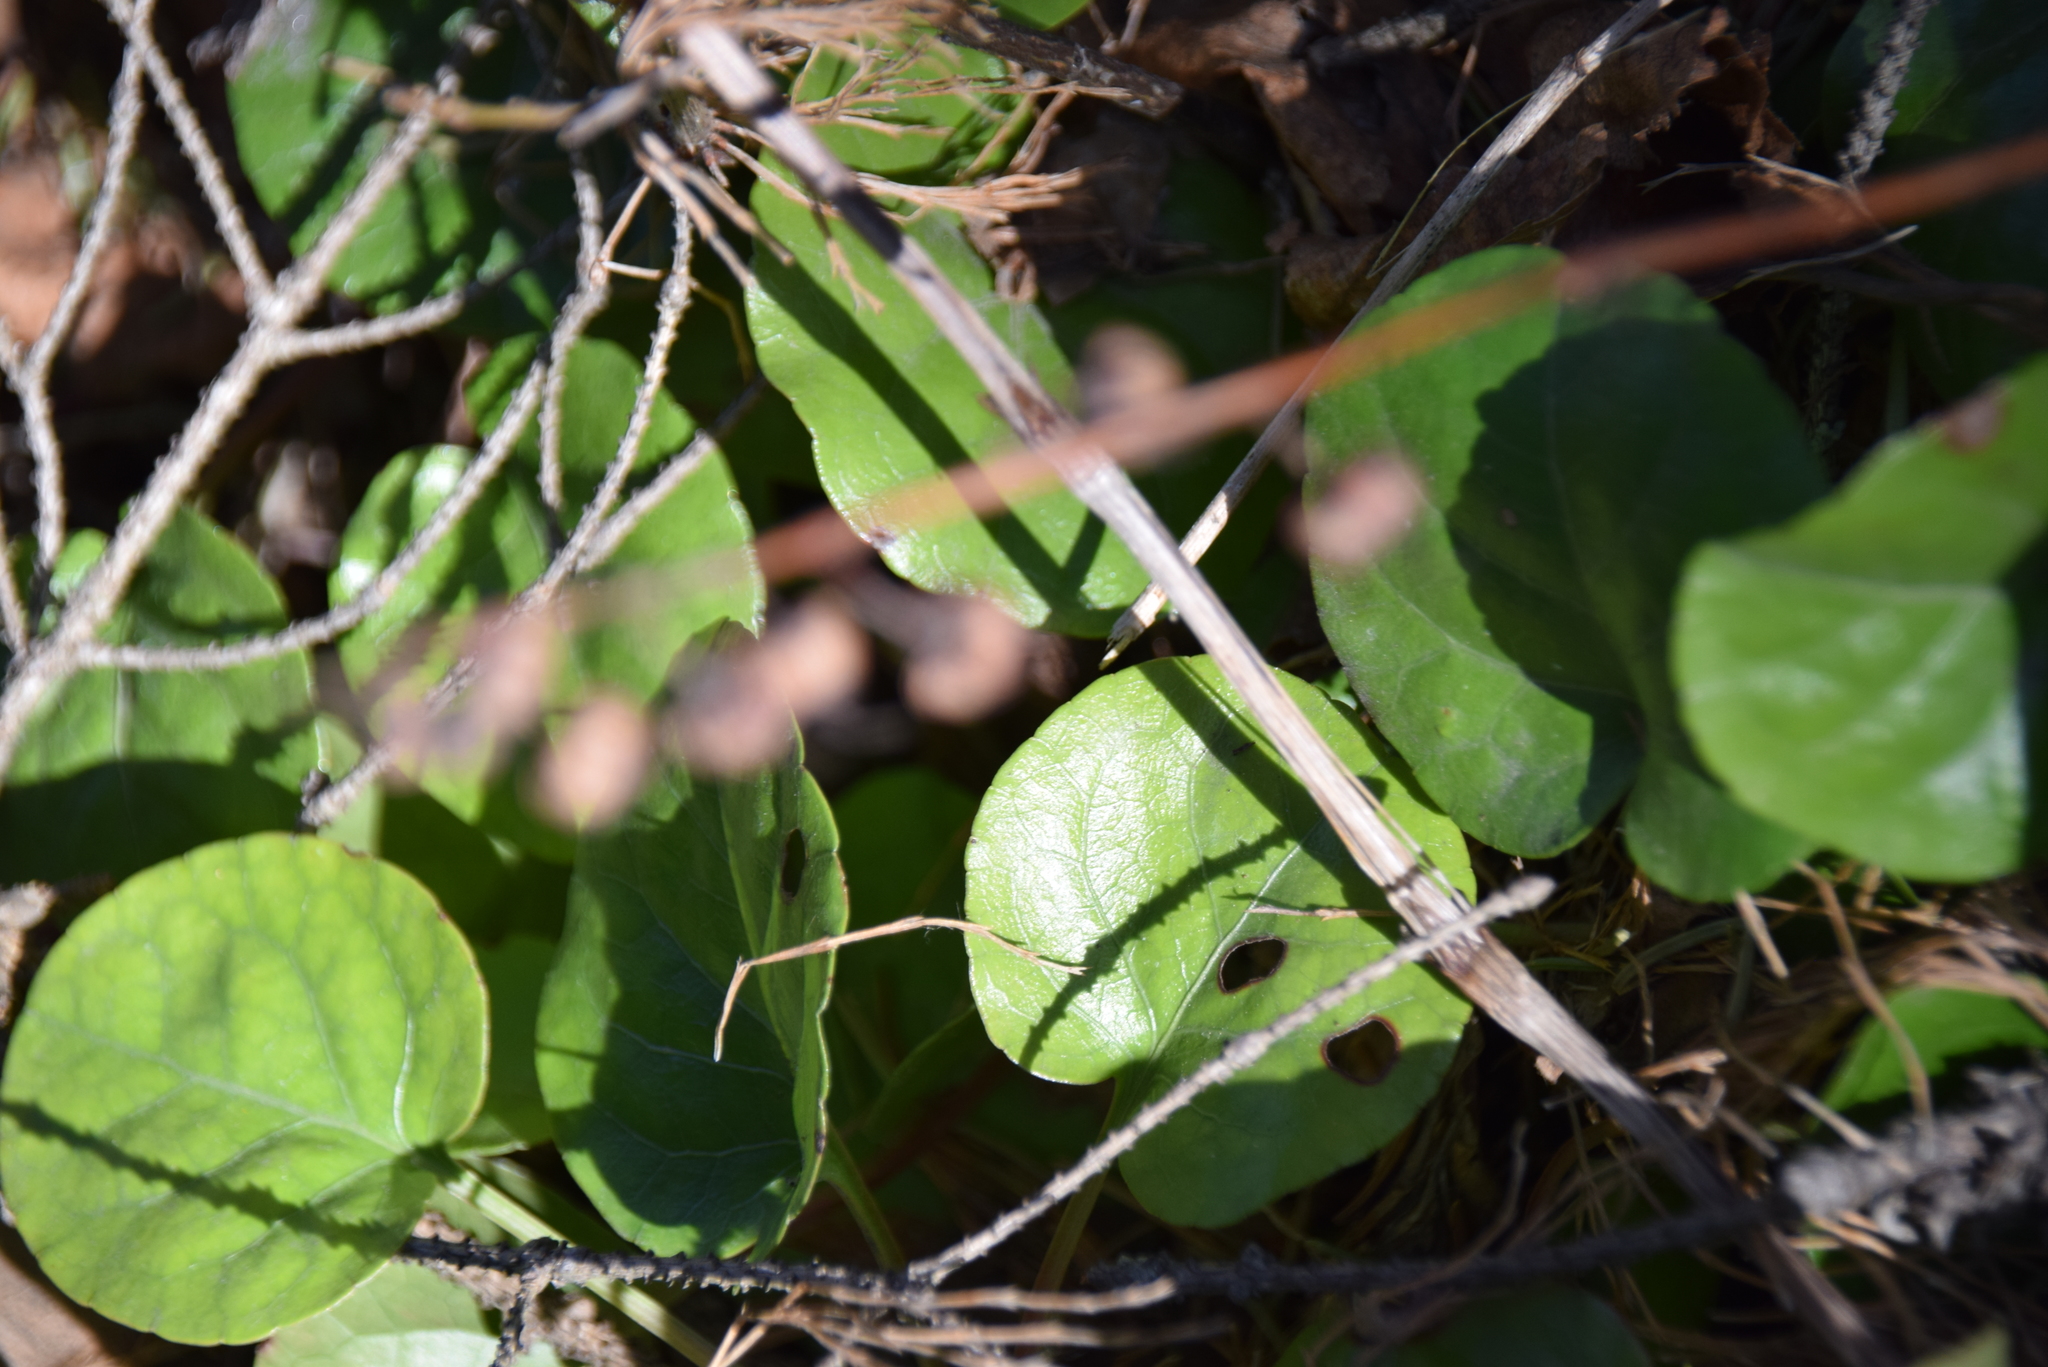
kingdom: Plantae
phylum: Tracheophyta
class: Magnoliopsida
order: Ericales
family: Ericaceae
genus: Pyrola
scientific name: Pyrola elliptica
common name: Shinleaf
